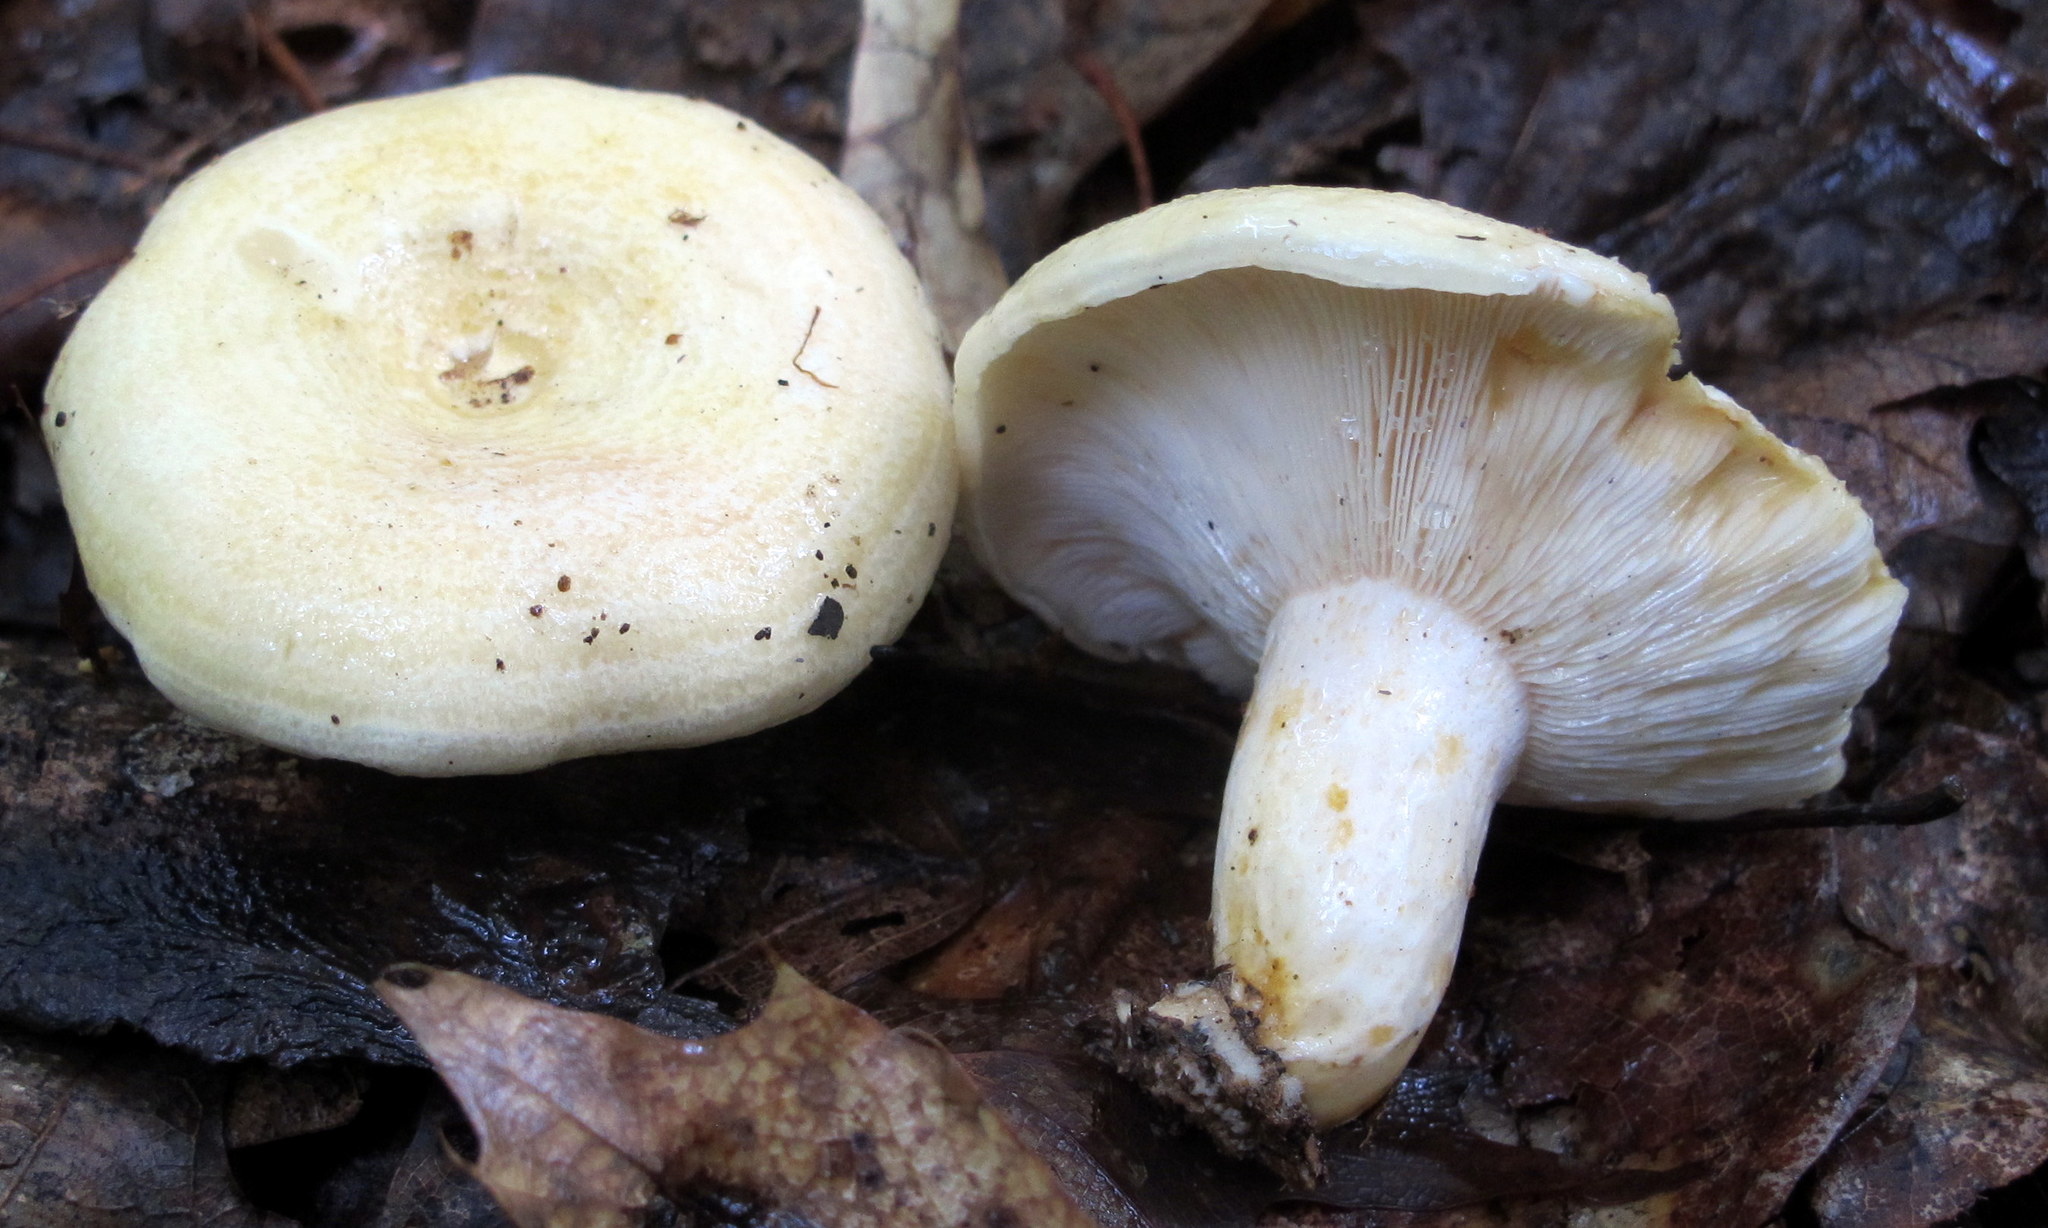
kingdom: Fungi
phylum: Basidiomycota
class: Agaricomycetes
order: Russulales
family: Russulaceae
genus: Lactarius
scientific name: Lactarius maculatipes
